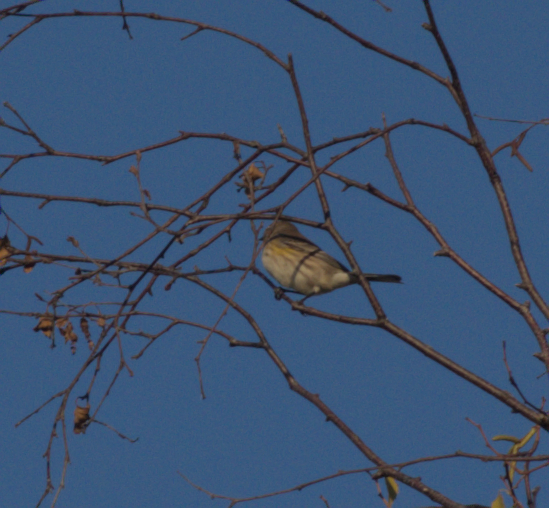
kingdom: Animalia
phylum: Chordata
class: Aves
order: Passeriformes
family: Parulidae
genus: Setophaga
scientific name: Setophaga coronata
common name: Myrtle warbler
